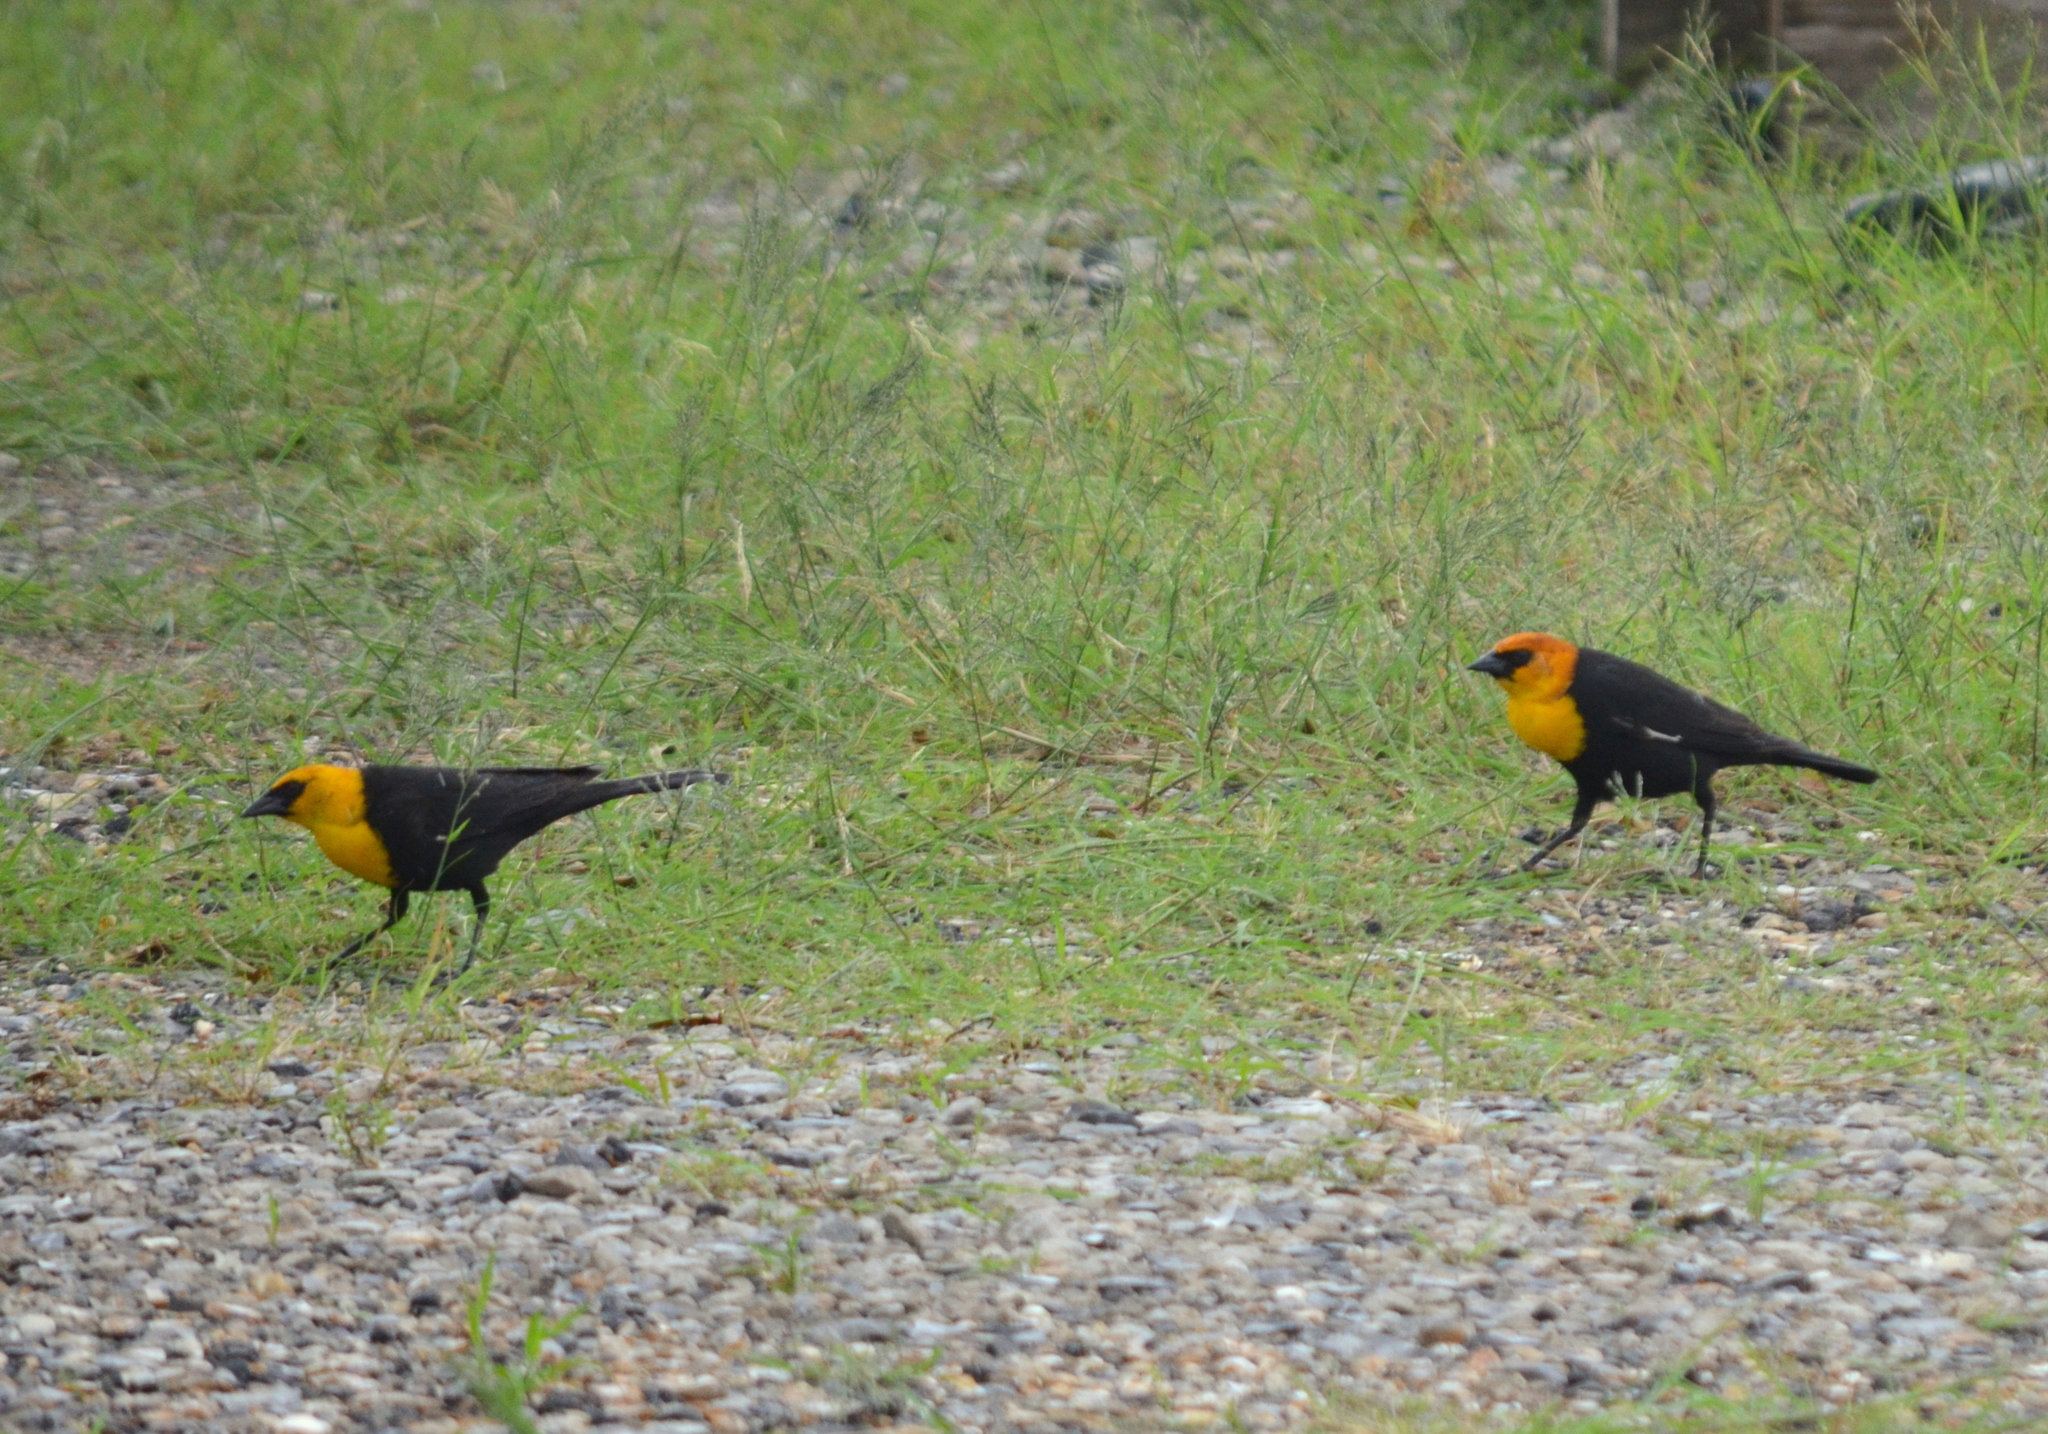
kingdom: Animalia
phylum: Chordata
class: Aves
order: Passeriformes
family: Icteridae
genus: Xanthocephalus
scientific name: Xanthocephalus xanthocephalus
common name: Yellow-headed blackbird
